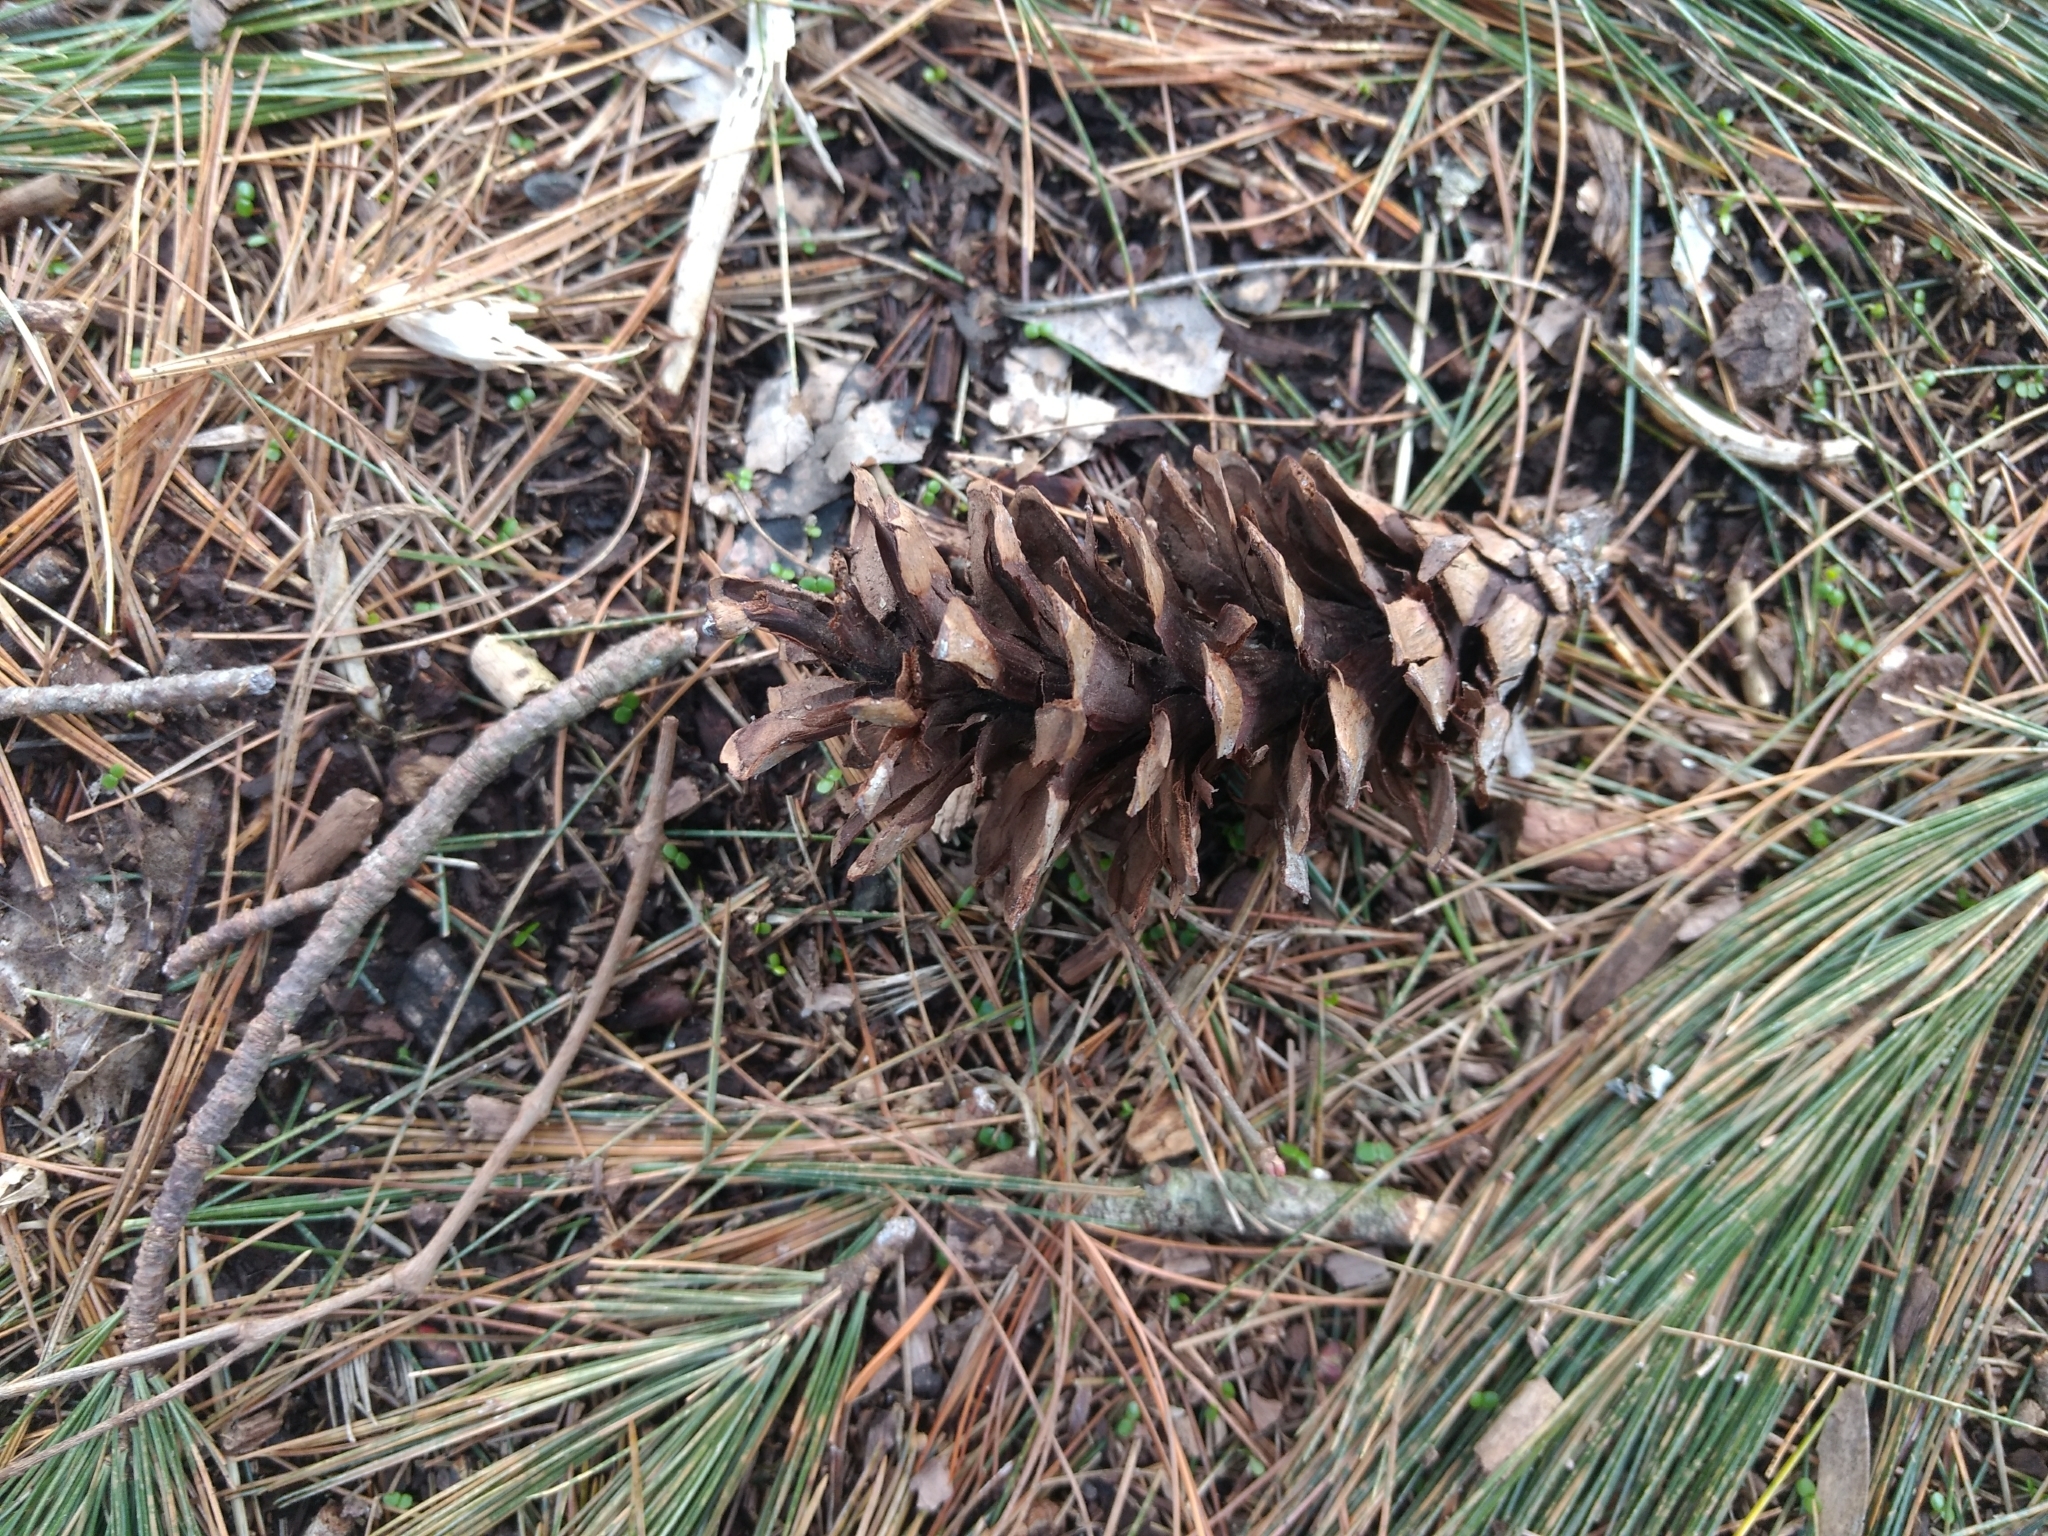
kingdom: Plantae
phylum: Tracheophyta
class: Pinopsida
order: Pinales
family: Pinaceae
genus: Pinus
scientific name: Pinus strobus
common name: Weymouth pine
